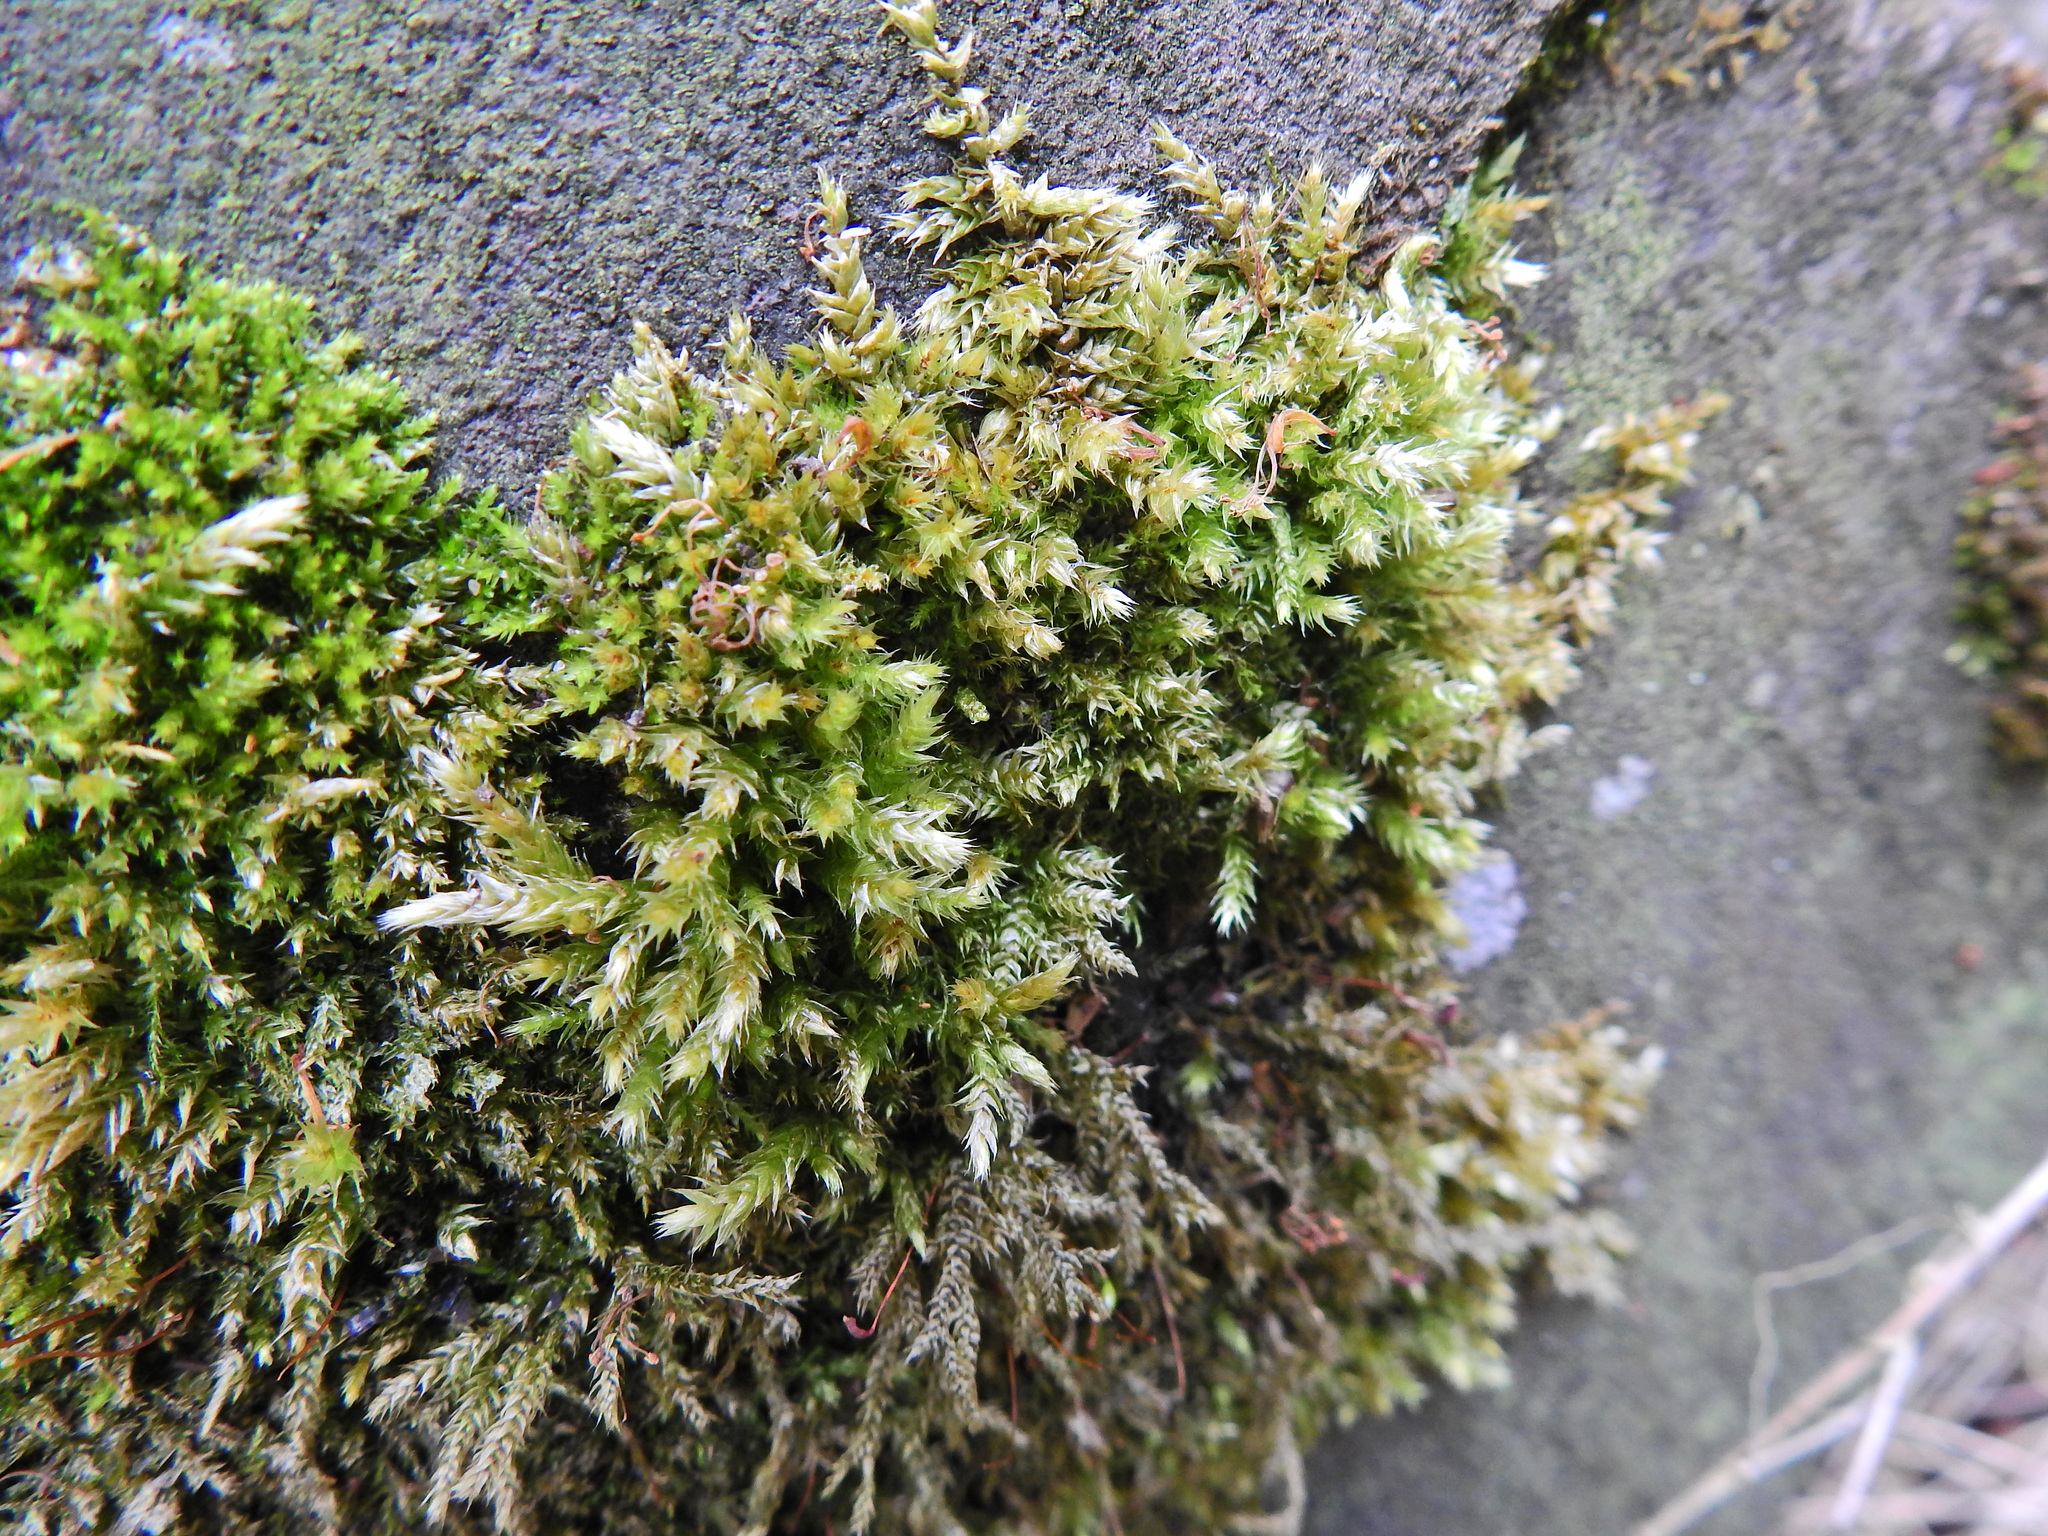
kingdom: Plantae
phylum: Bryophyta
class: Bryopsida
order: Hypnales
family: Brachytheciaceae
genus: Brachythecium
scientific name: Brachythecium rutabulum
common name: Rough-stalked feather-moss
